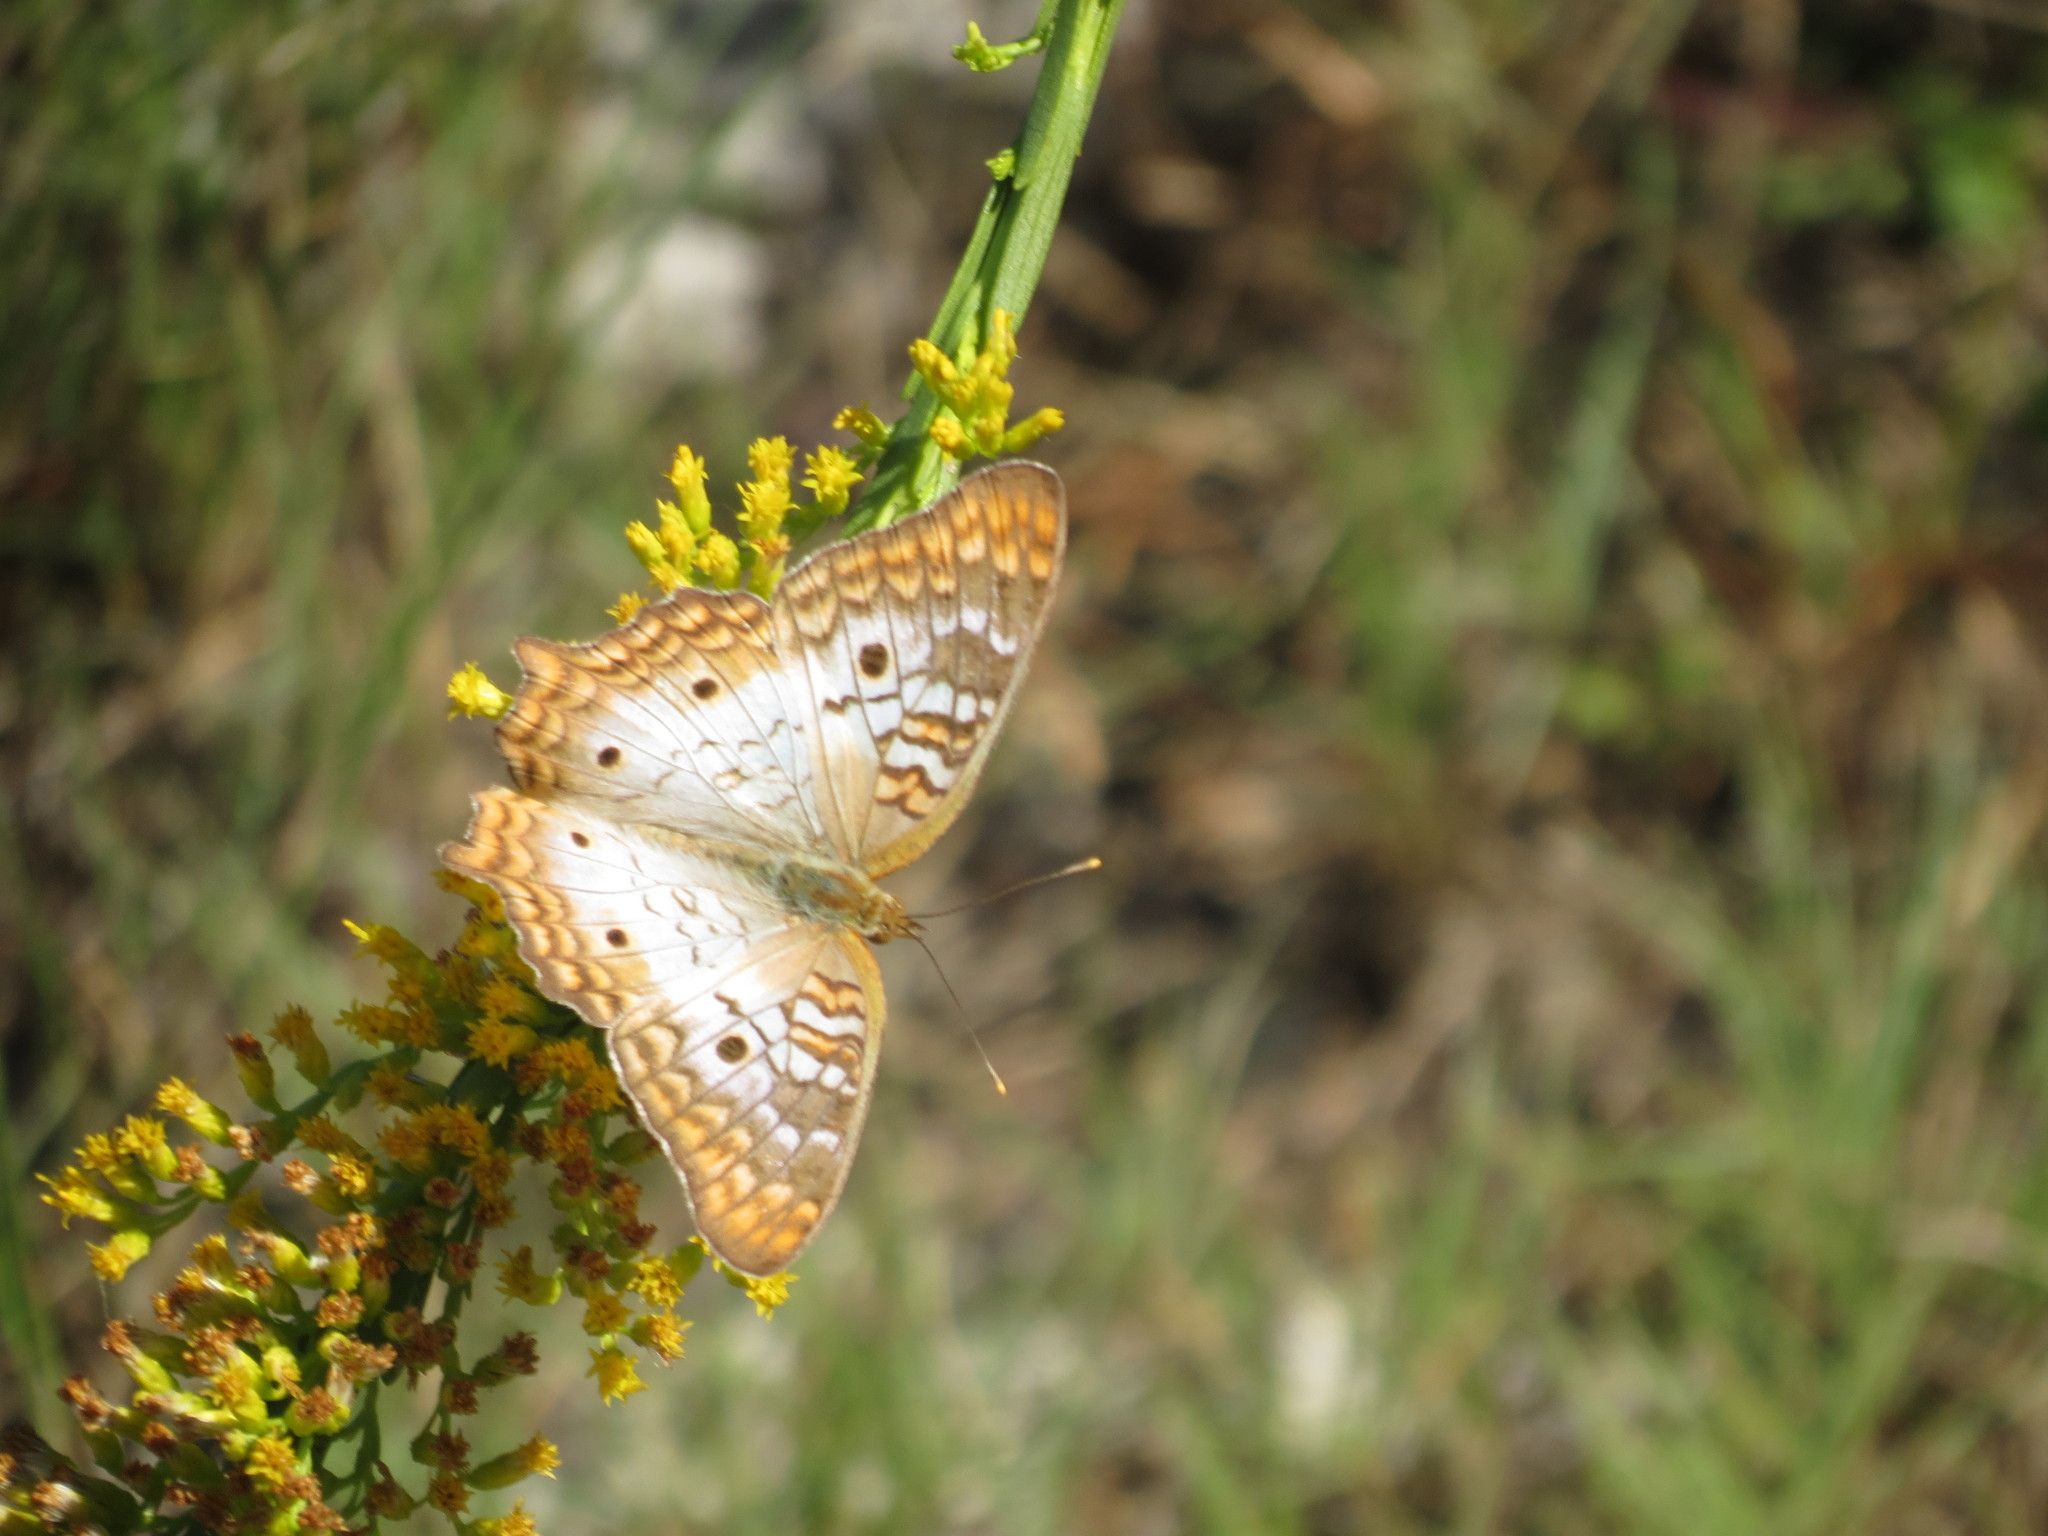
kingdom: Animalia
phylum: Arthropoda
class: Insecta
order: Lepidoptera
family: Nymphalidae
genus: Anartia
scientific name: Anartia jatrophae
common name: White peacock
